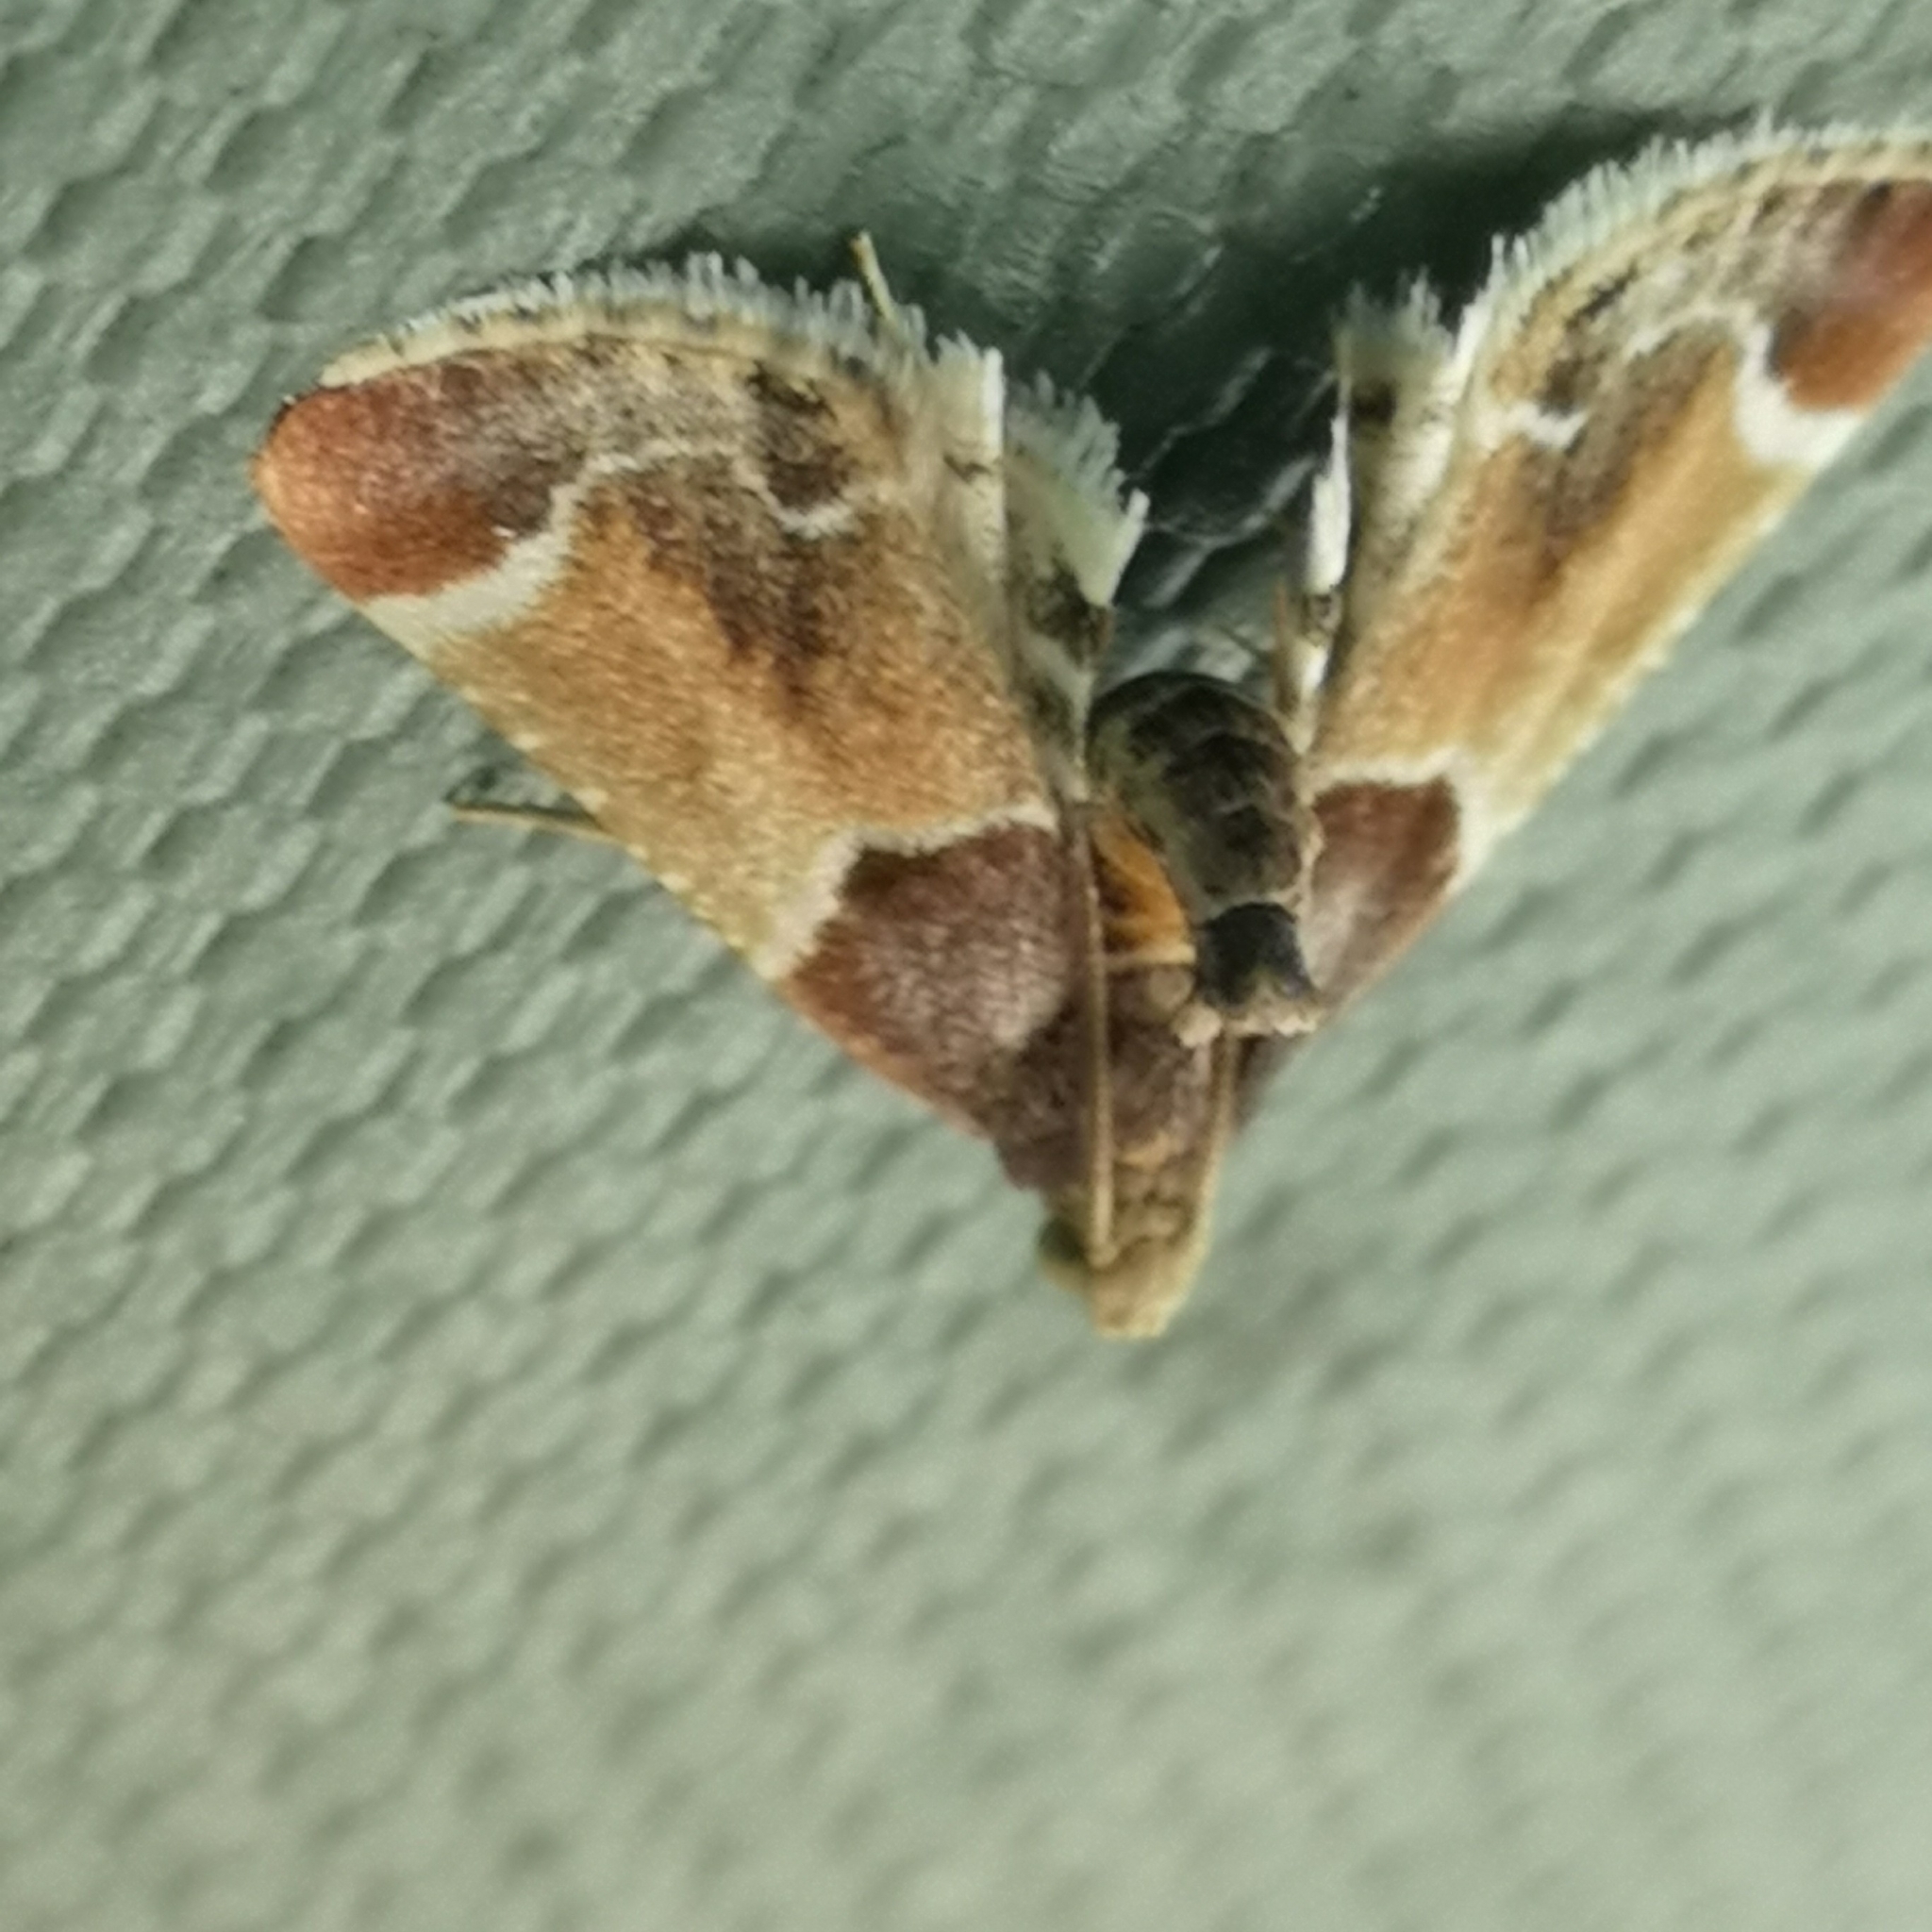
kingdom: Animalia
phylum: Arthropoda
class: Insecta
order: Lepidoptera
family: Pyralidae
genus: Pyralis
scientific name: Pyralis farinalis
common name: Meal moth
